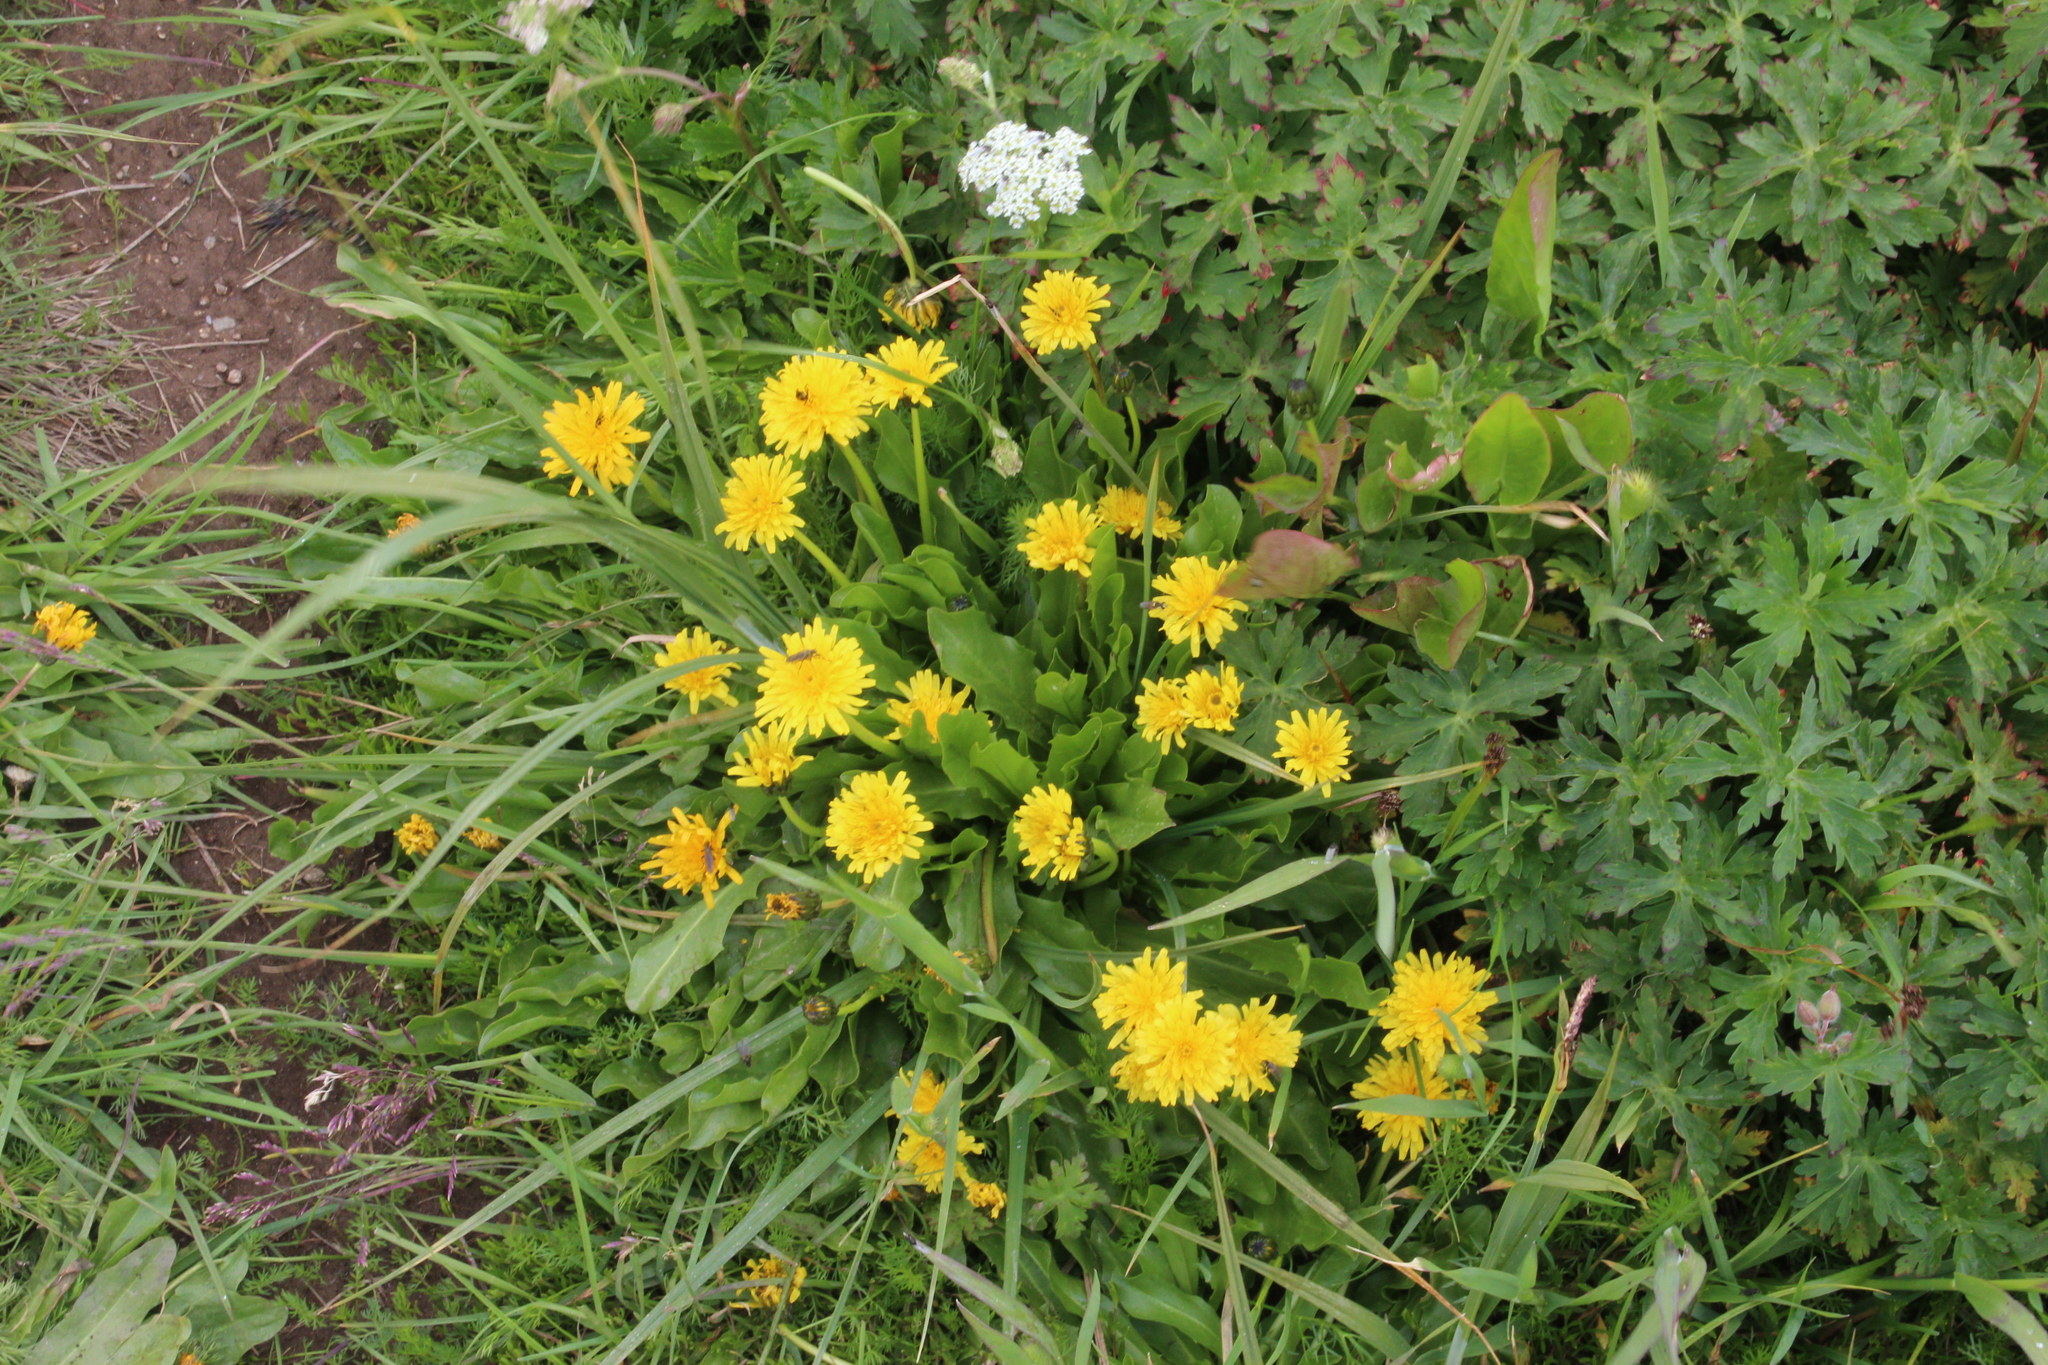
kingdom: Plantae
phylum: Tracheophyta
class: Magnoliopsida
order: Asterales
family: Asteraceae
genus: Taraxacum
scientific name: Taraxacum stevenii
